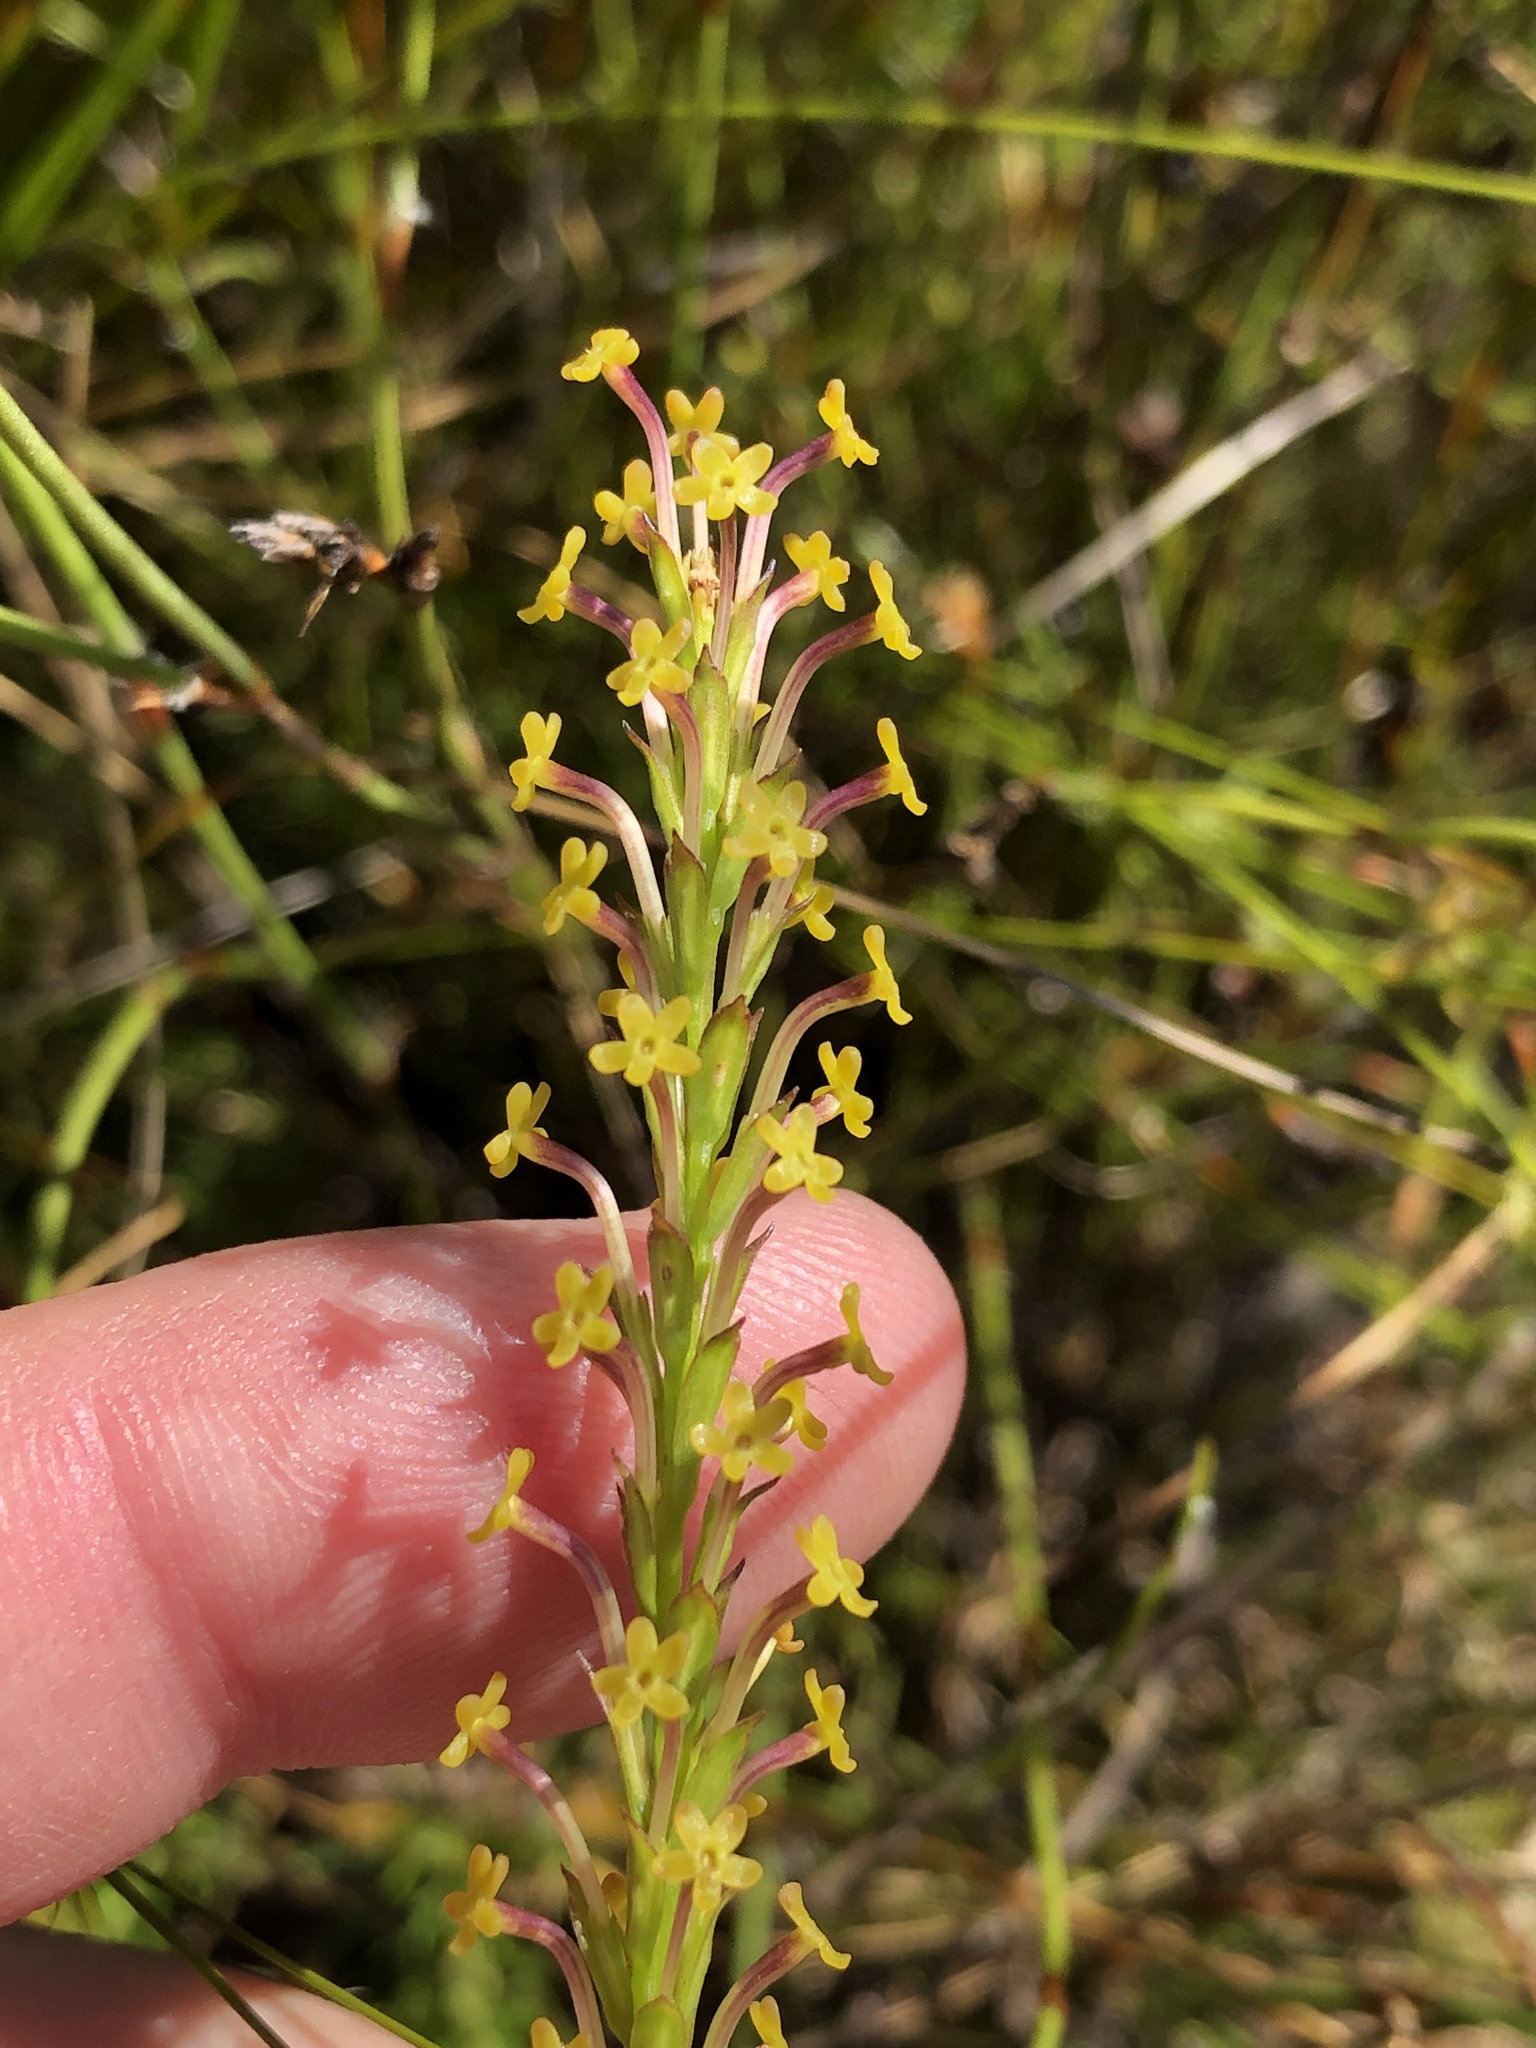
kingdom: Plantae
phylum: Tracheophyta
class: Magnoliopsida
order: Lamiales
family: Scrophulariaceae
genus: Microdon
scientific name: Microdon dubius
